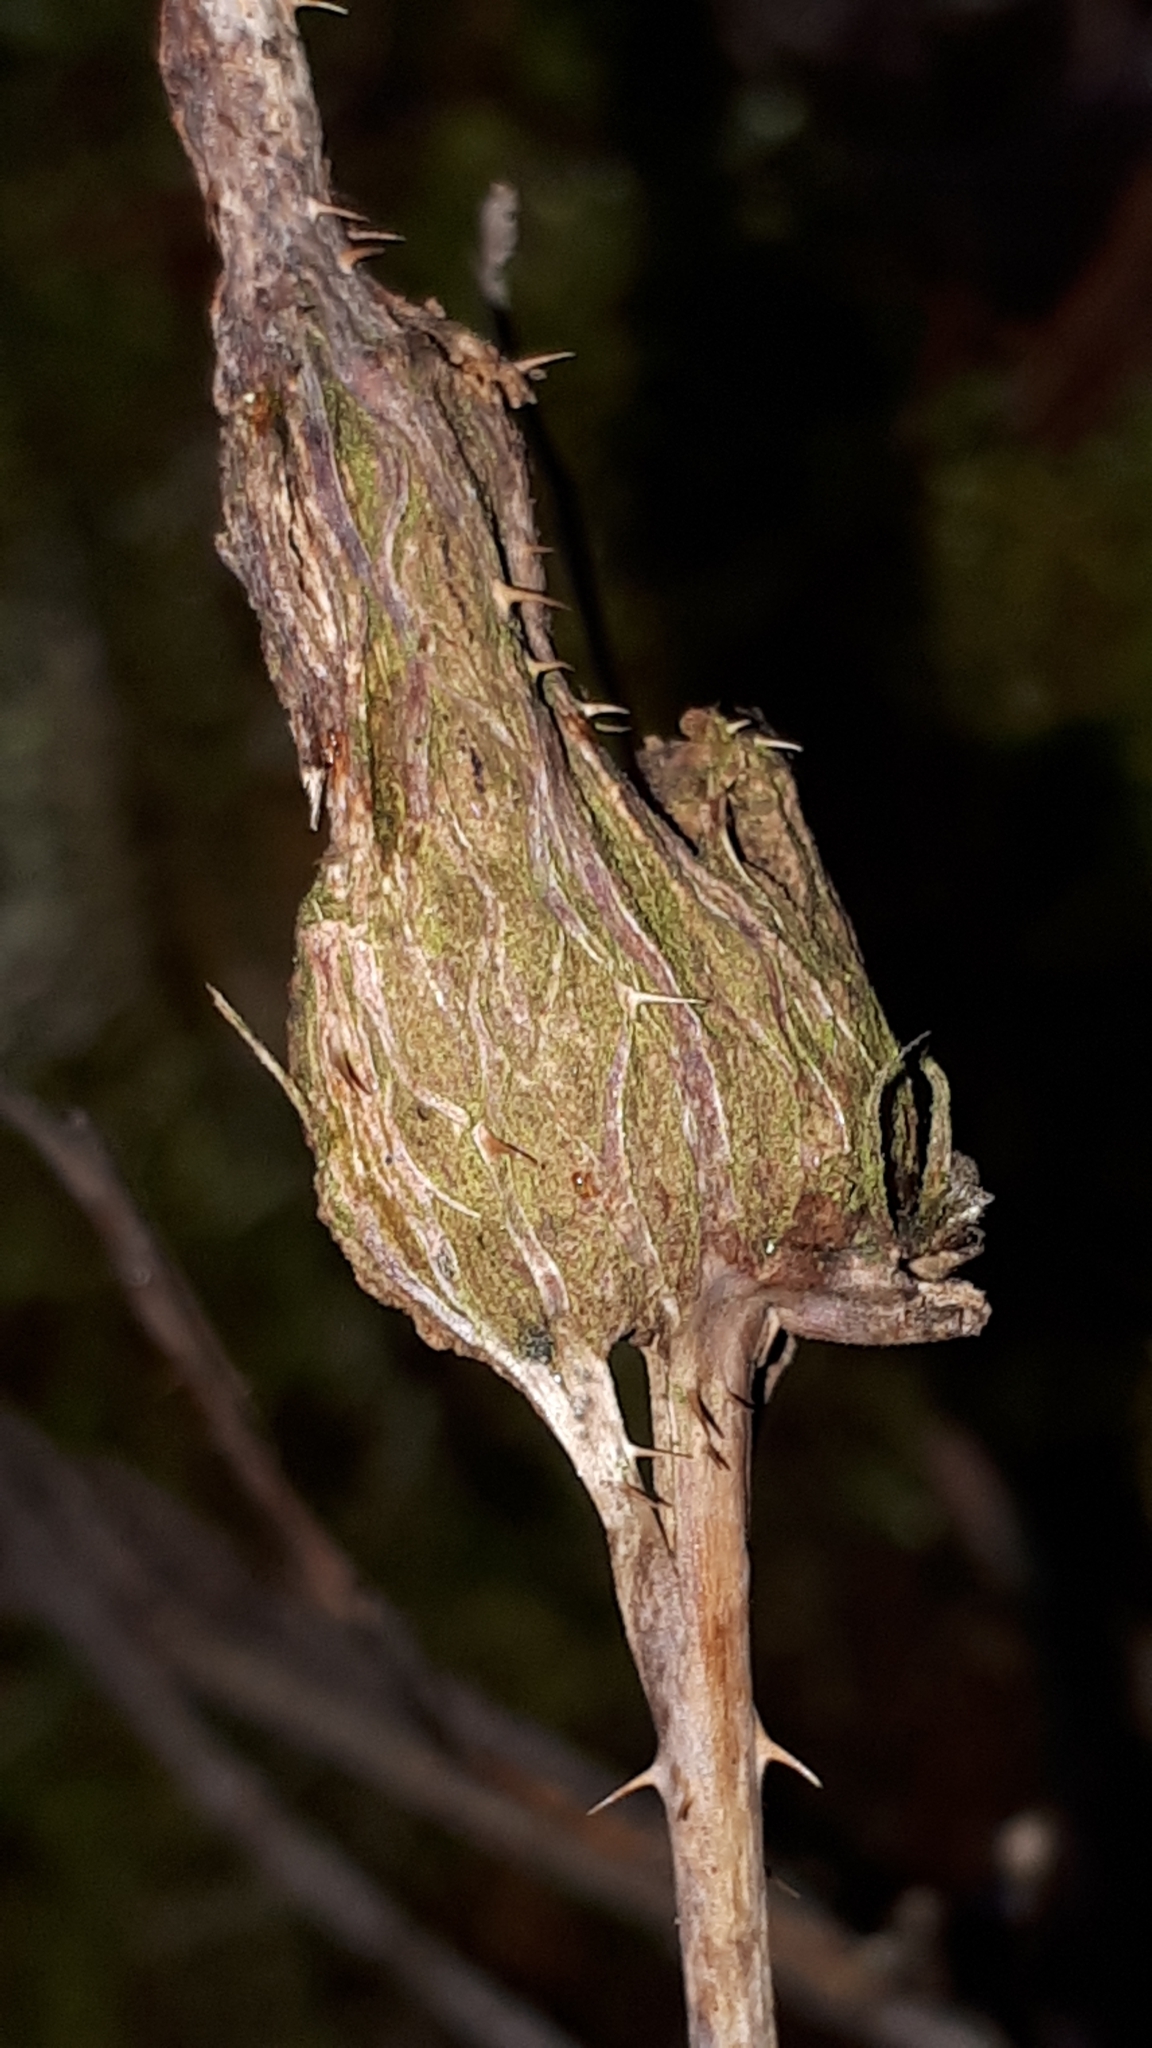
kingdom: Animalia
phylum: Arthropoda
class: Insecta
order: Diptera
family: Cecidomyiidae
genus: Lasioptera
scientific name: Lasioptera rubi
